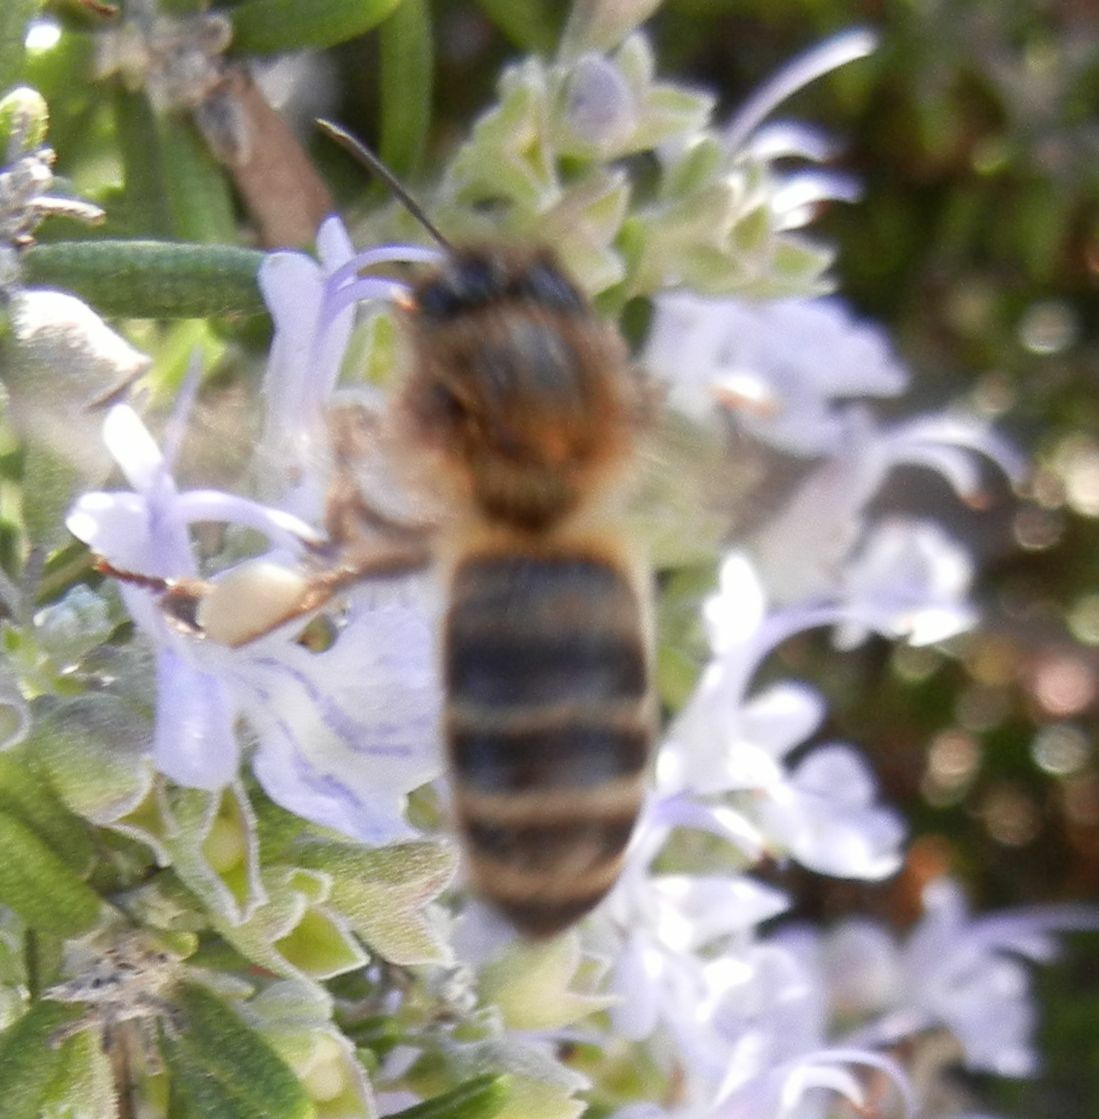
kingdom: Animalia
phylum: Arthropoda
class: Insecta
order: Hymenoptera
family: Apidae
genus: Apis
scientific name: Apis mellifera
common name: Honey bee
